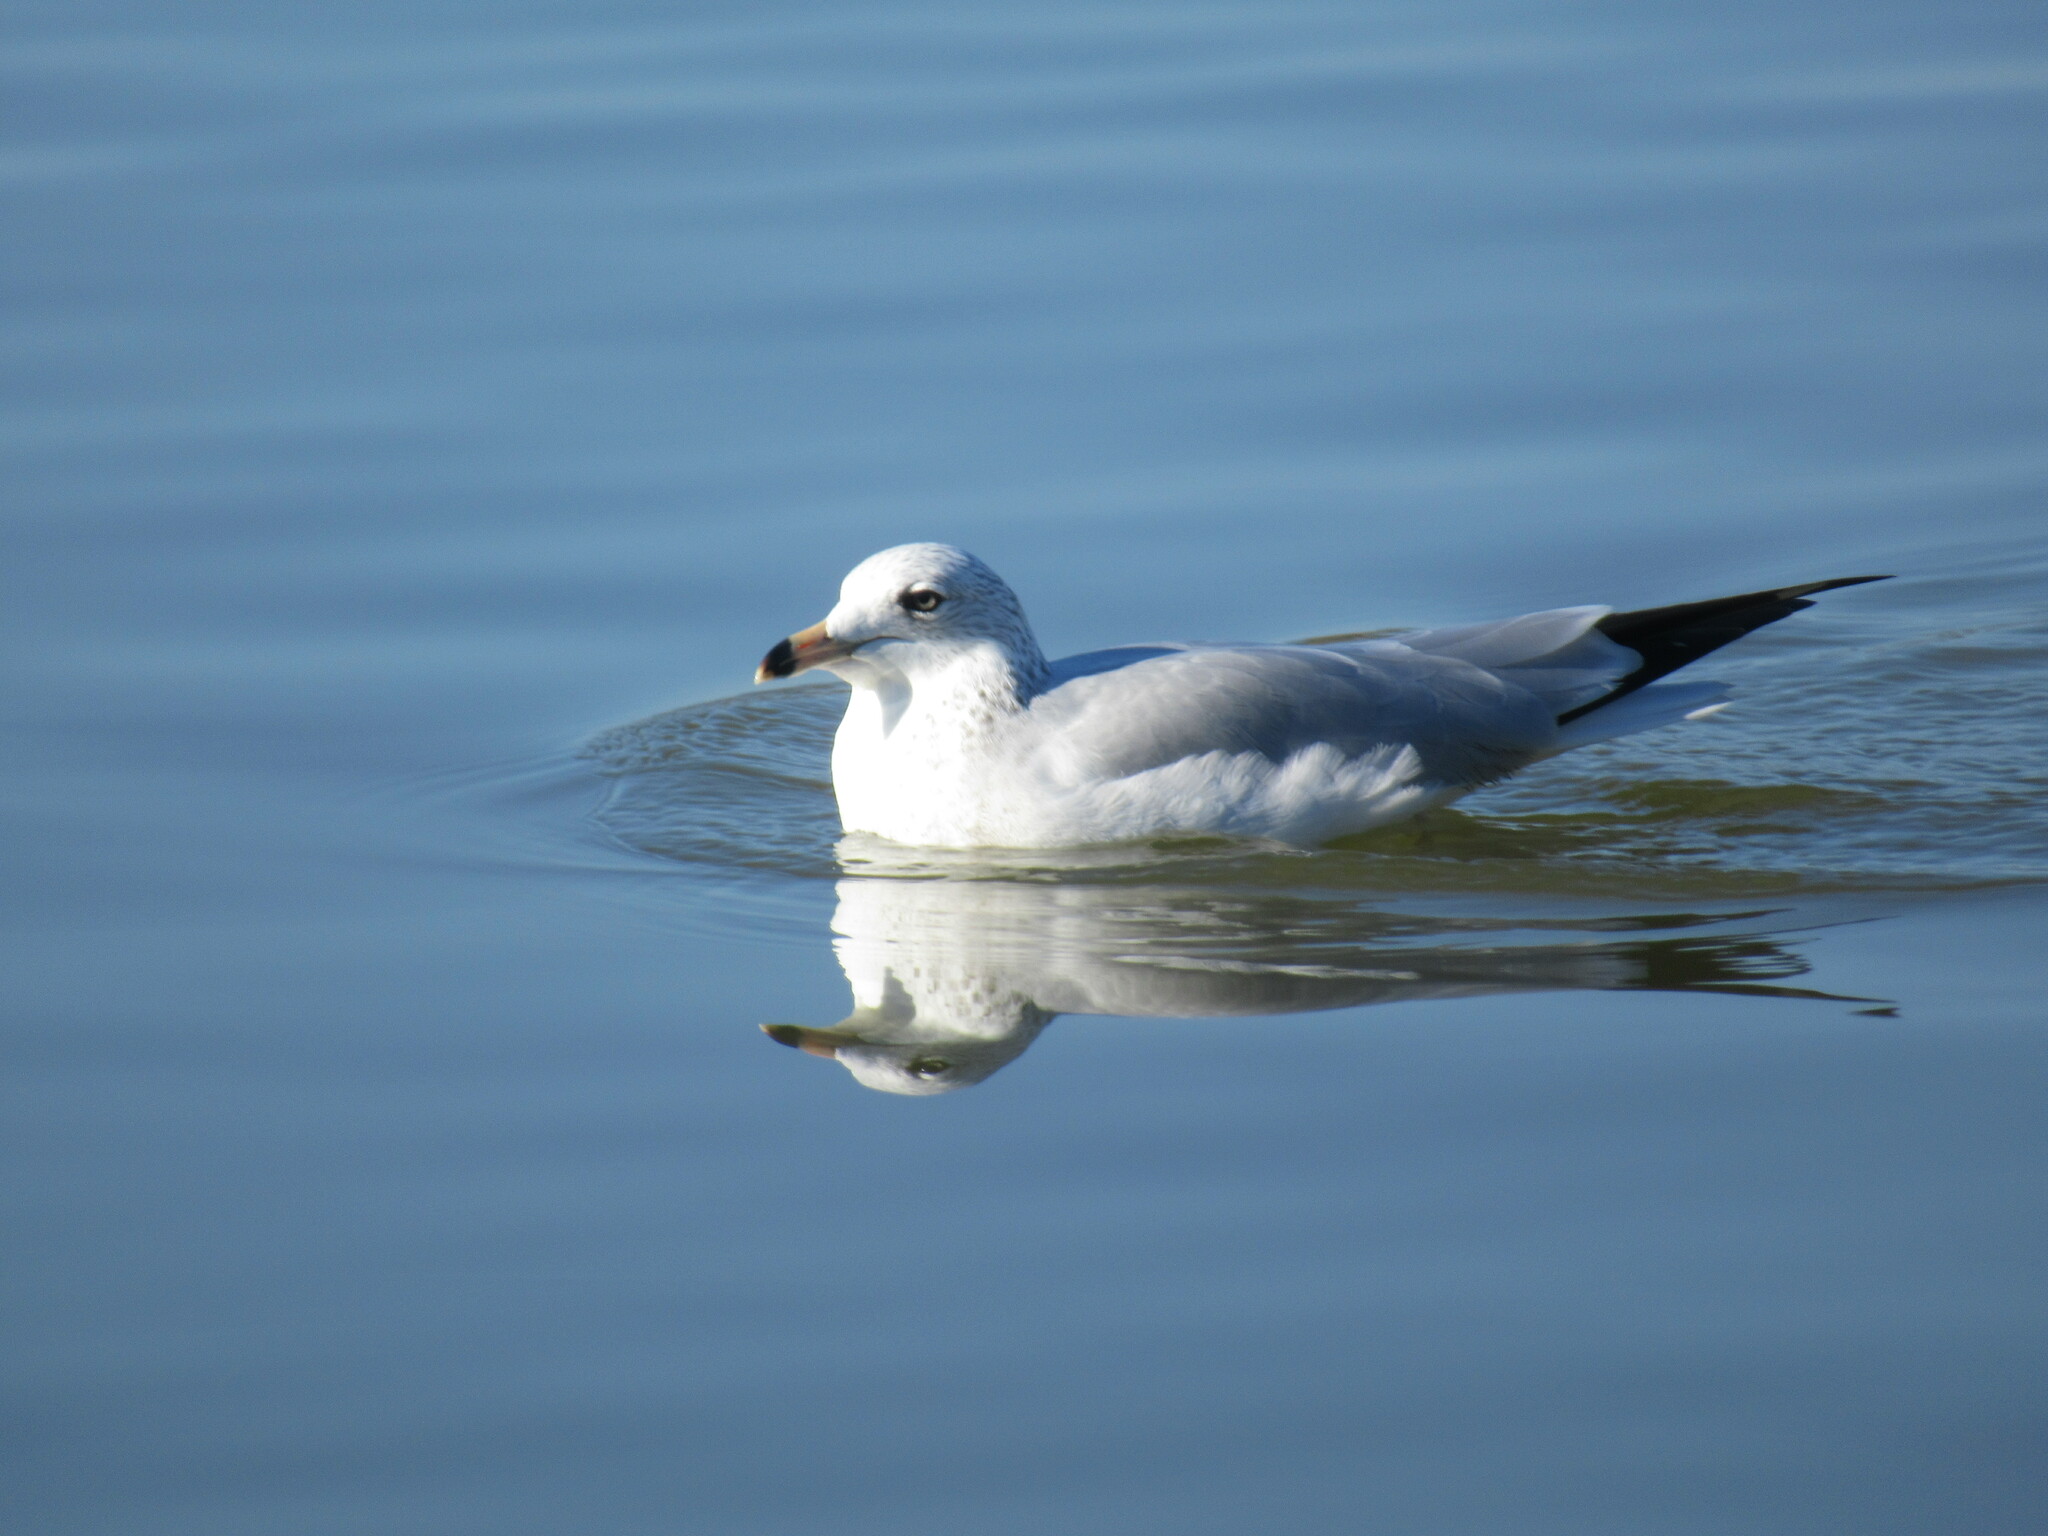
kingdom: Animalia
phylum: Chordata
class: Aves
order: Charadriiformes
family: Laridae
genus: Larus
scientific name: Larus delawarensis
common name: Ring-billed gull
